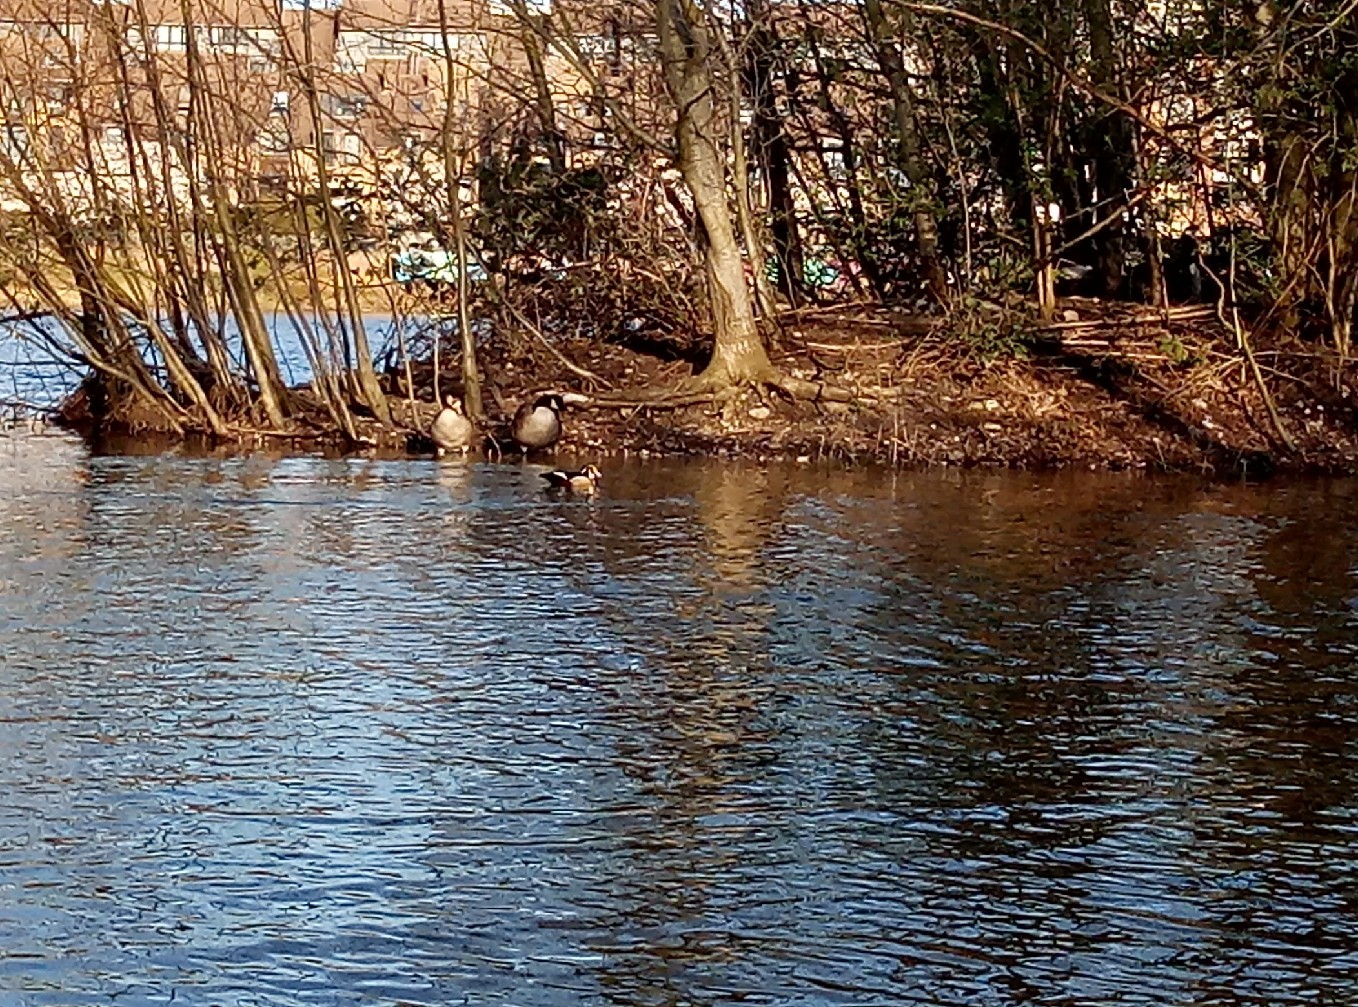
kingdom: Animalia
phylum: Chordata
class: Aves
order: Anseriformes
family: Anatidae
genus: Aix
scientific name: Aix sponsa
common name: Wood duck
